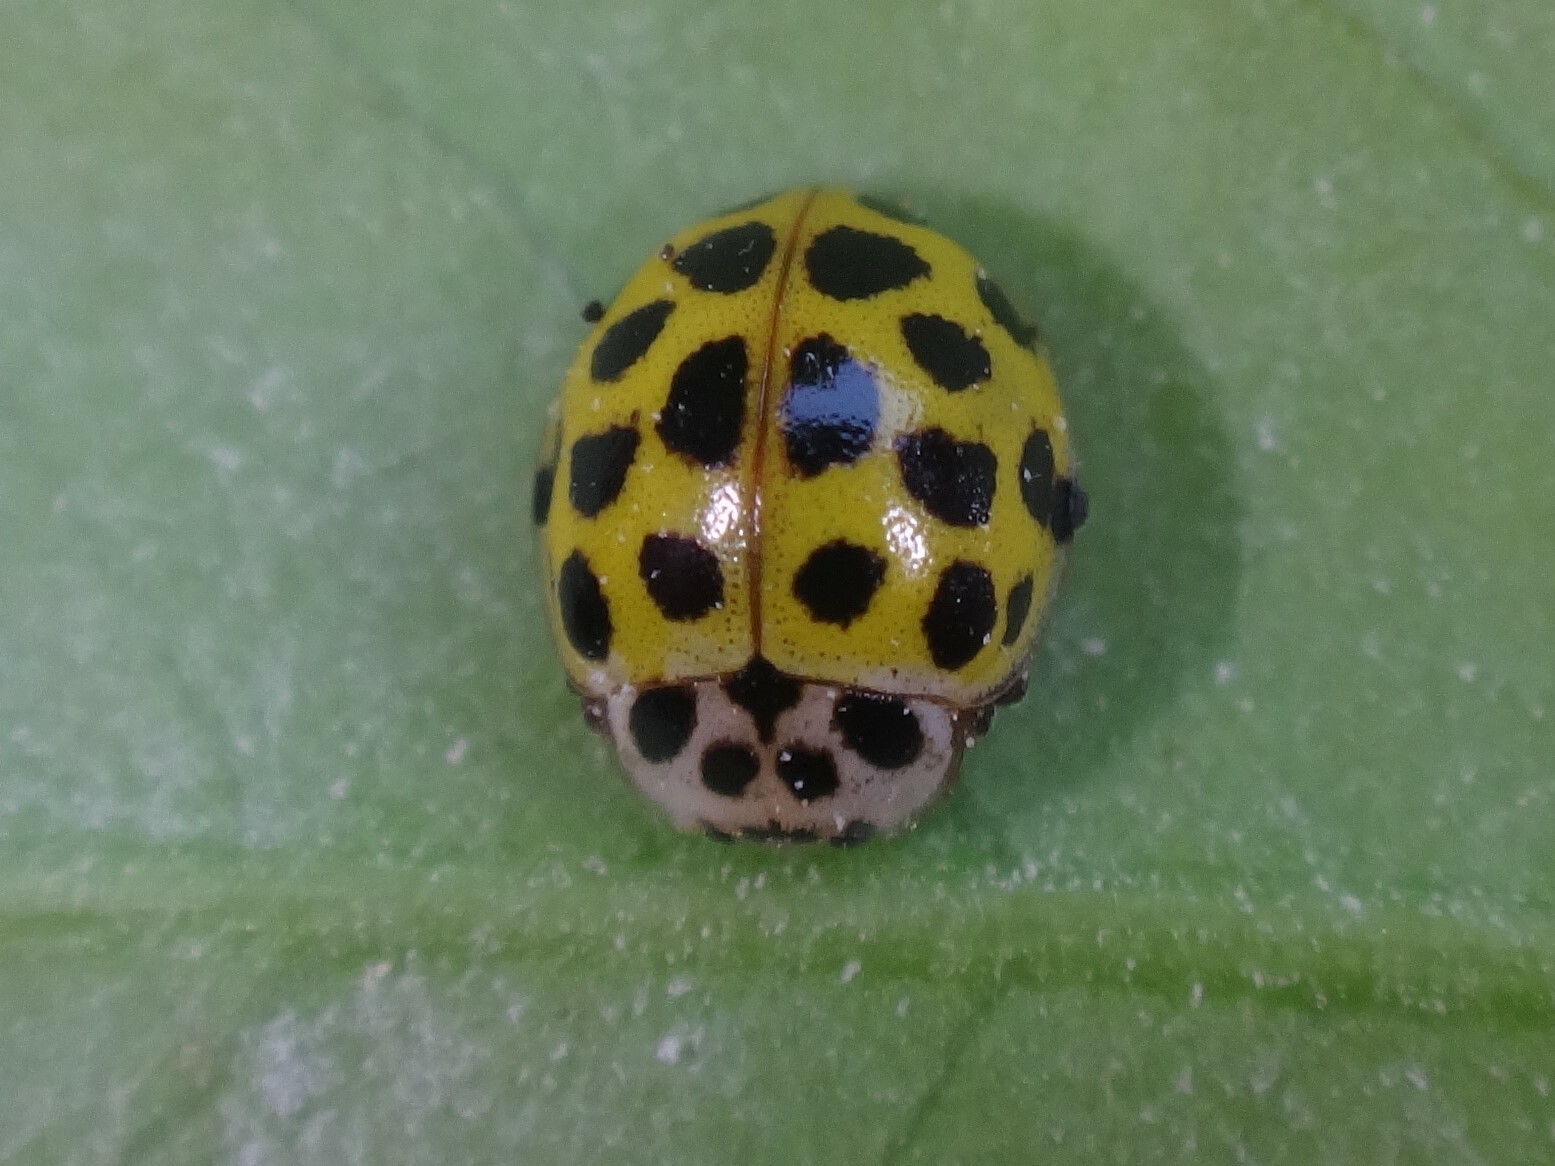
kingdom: Animalia
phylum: Arthropoda
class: Insecta
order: Coleoptera
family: Coccinellidae
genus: Psyllobora
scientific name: Psyllobora vigintiduopunctata
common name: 22-spot ladybird
